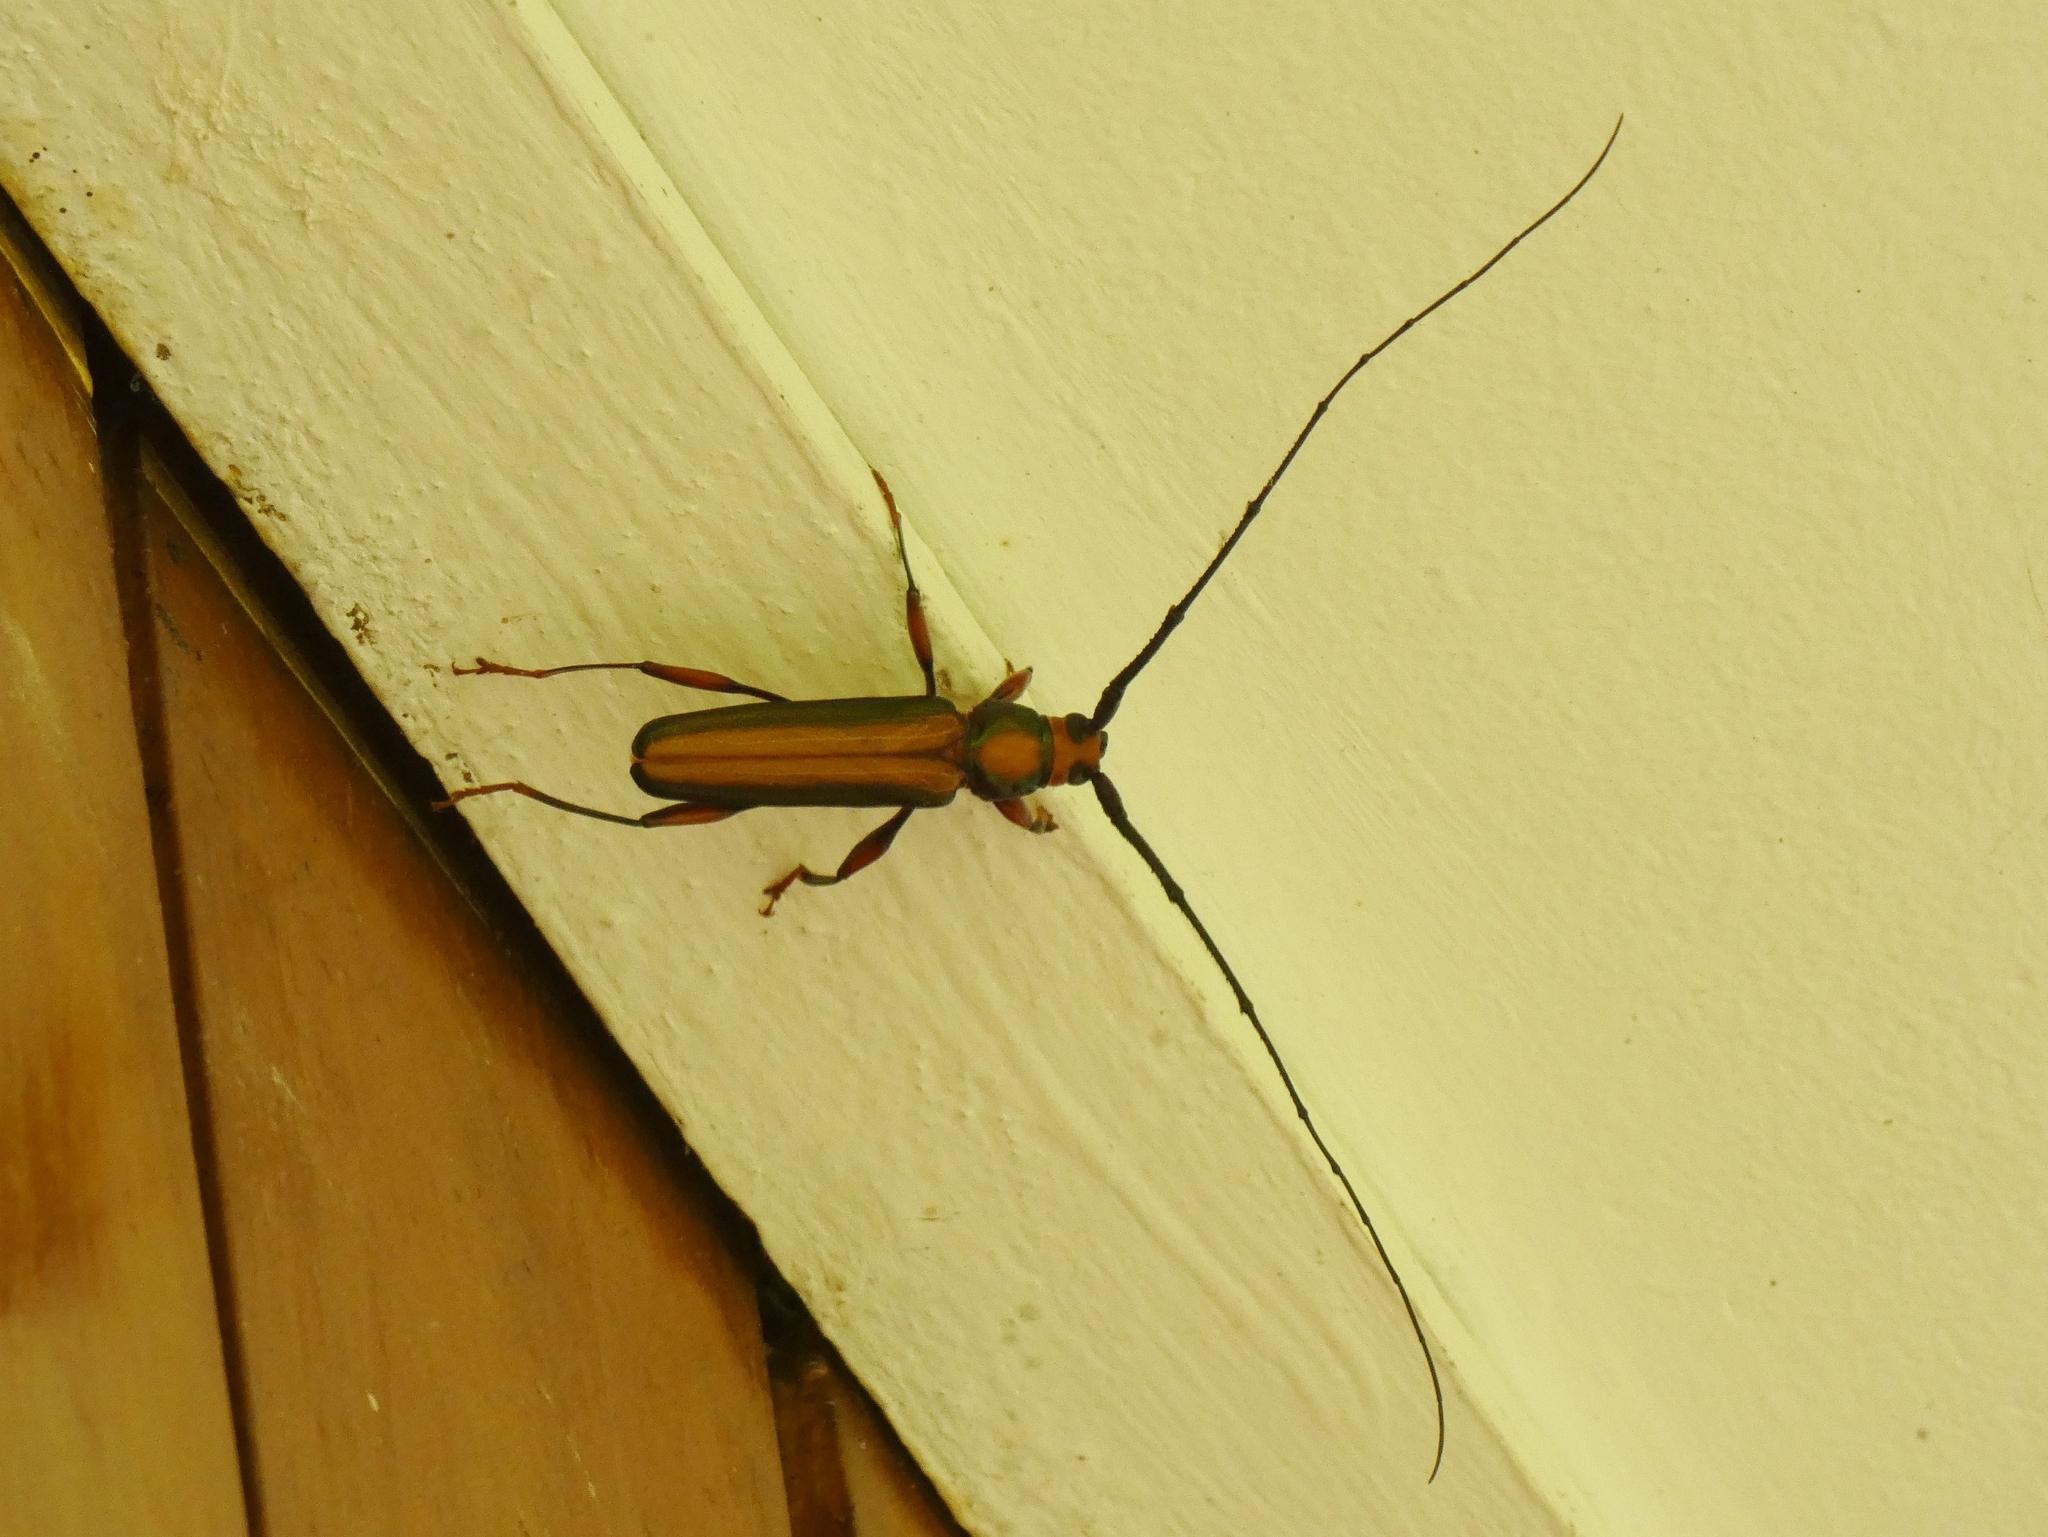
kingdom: Animalia
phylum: Arthropoda
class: Insecta
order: Coleoptera
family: Cerambycidae
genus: Xystrocera
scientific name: Xystrocera festiva
